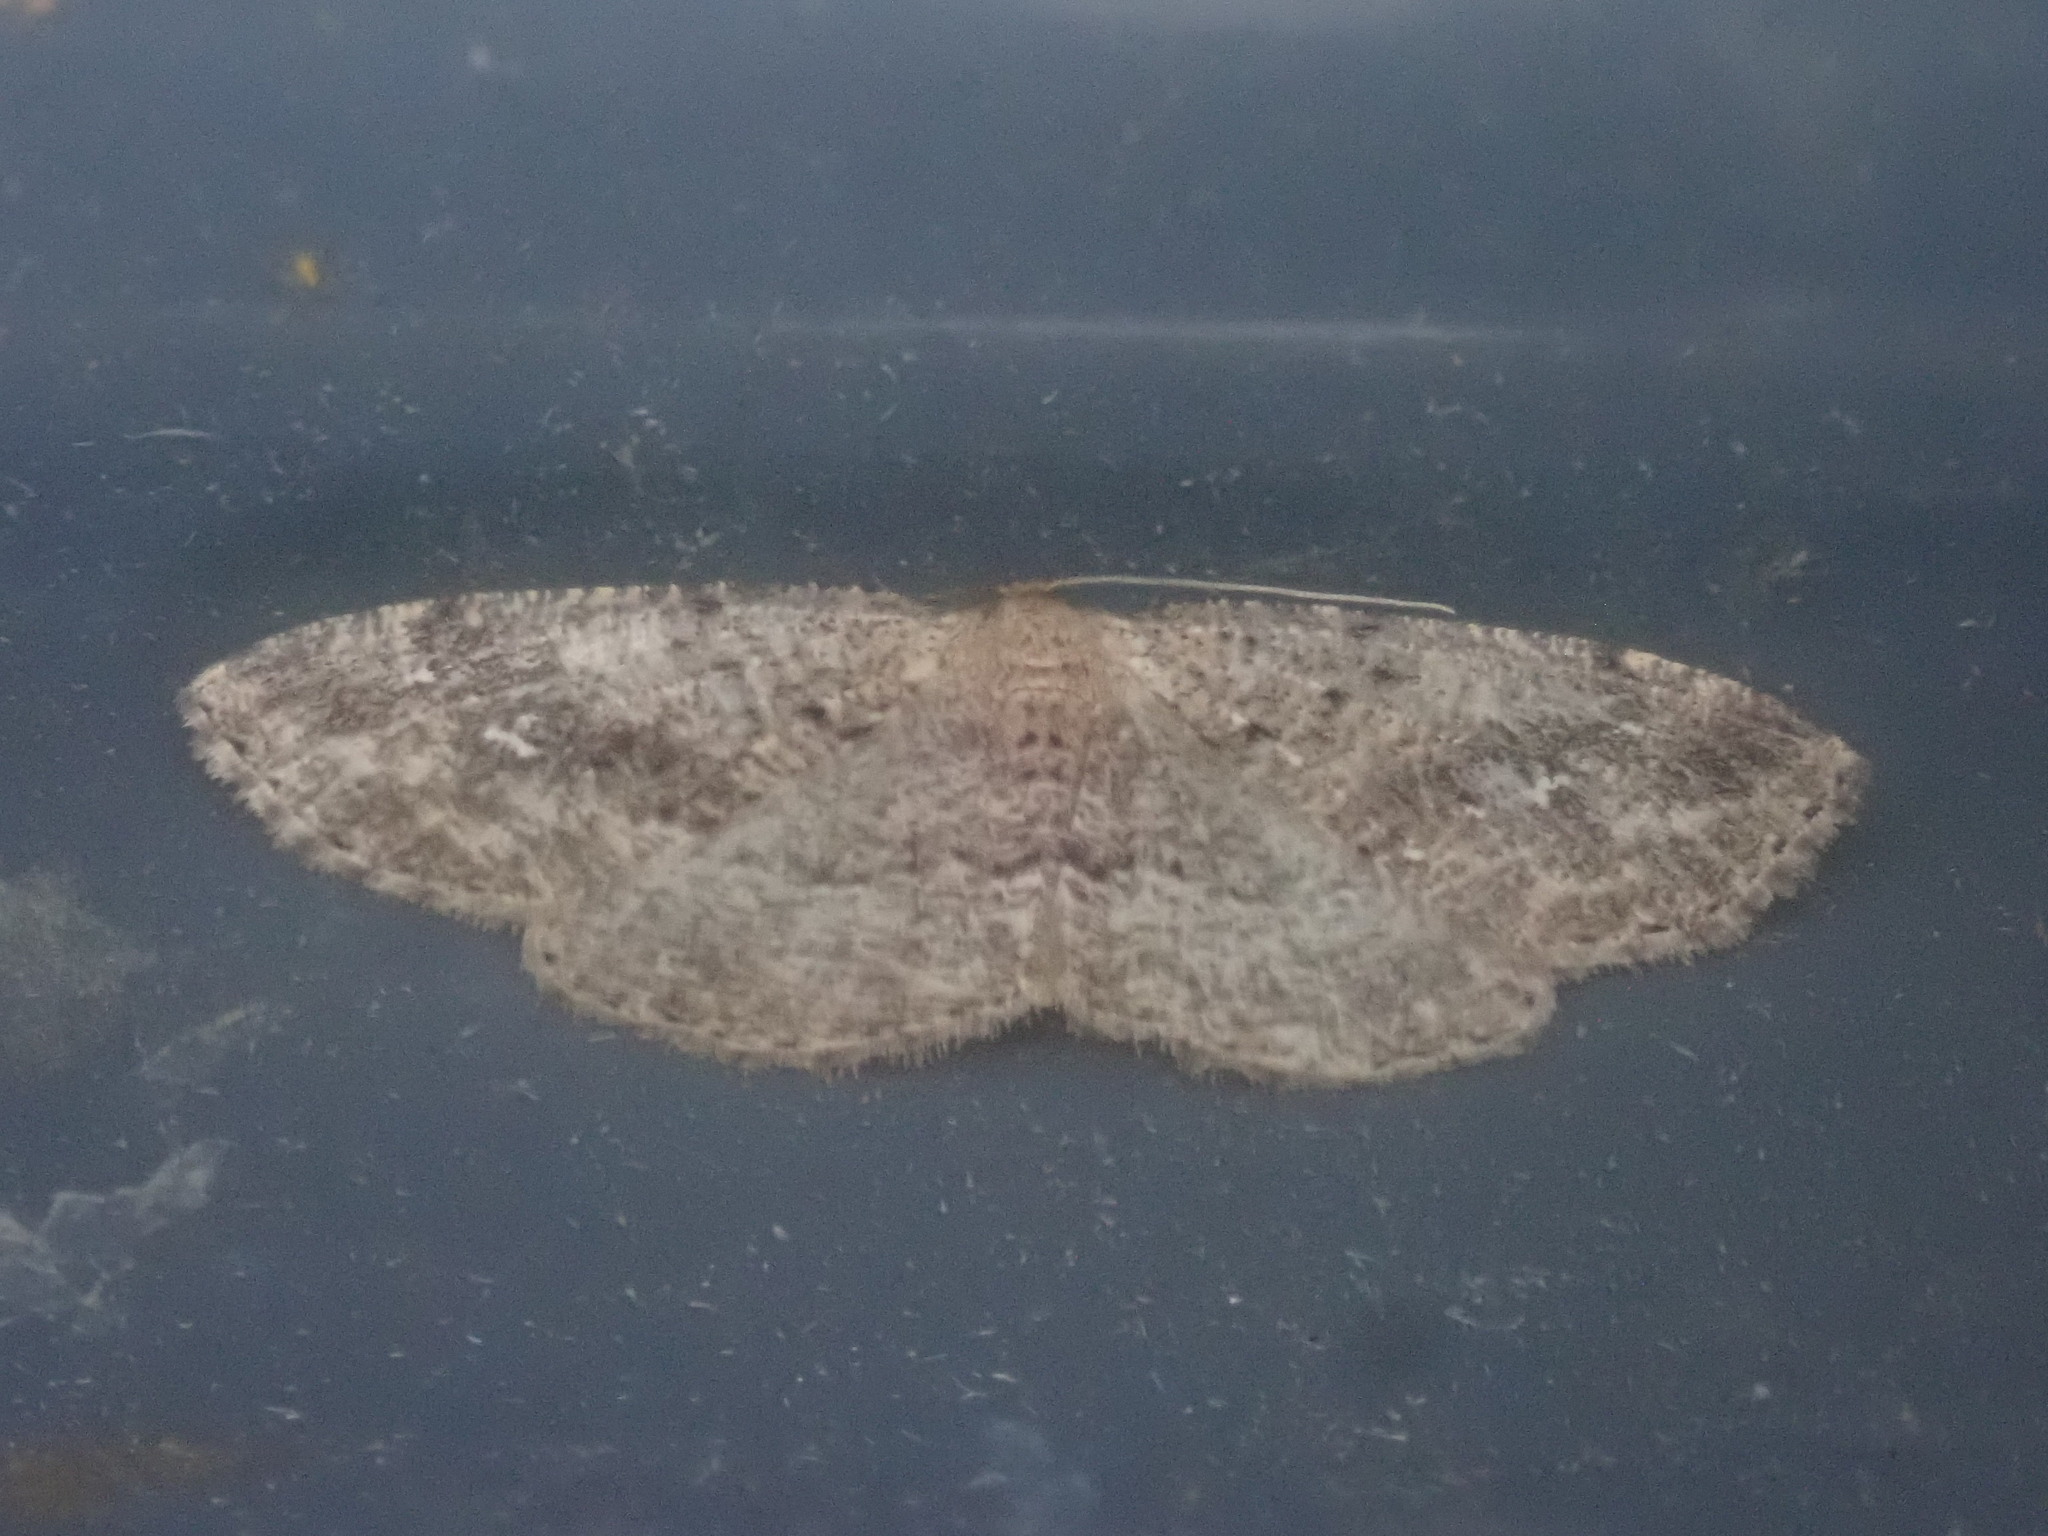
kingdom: Animalia
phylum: Arthropoda
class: Insecta
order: Lepidoptera
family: Geometridae
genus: Homochlodes
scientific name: Homochlodes fritillaria
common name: Pale homochlodes
